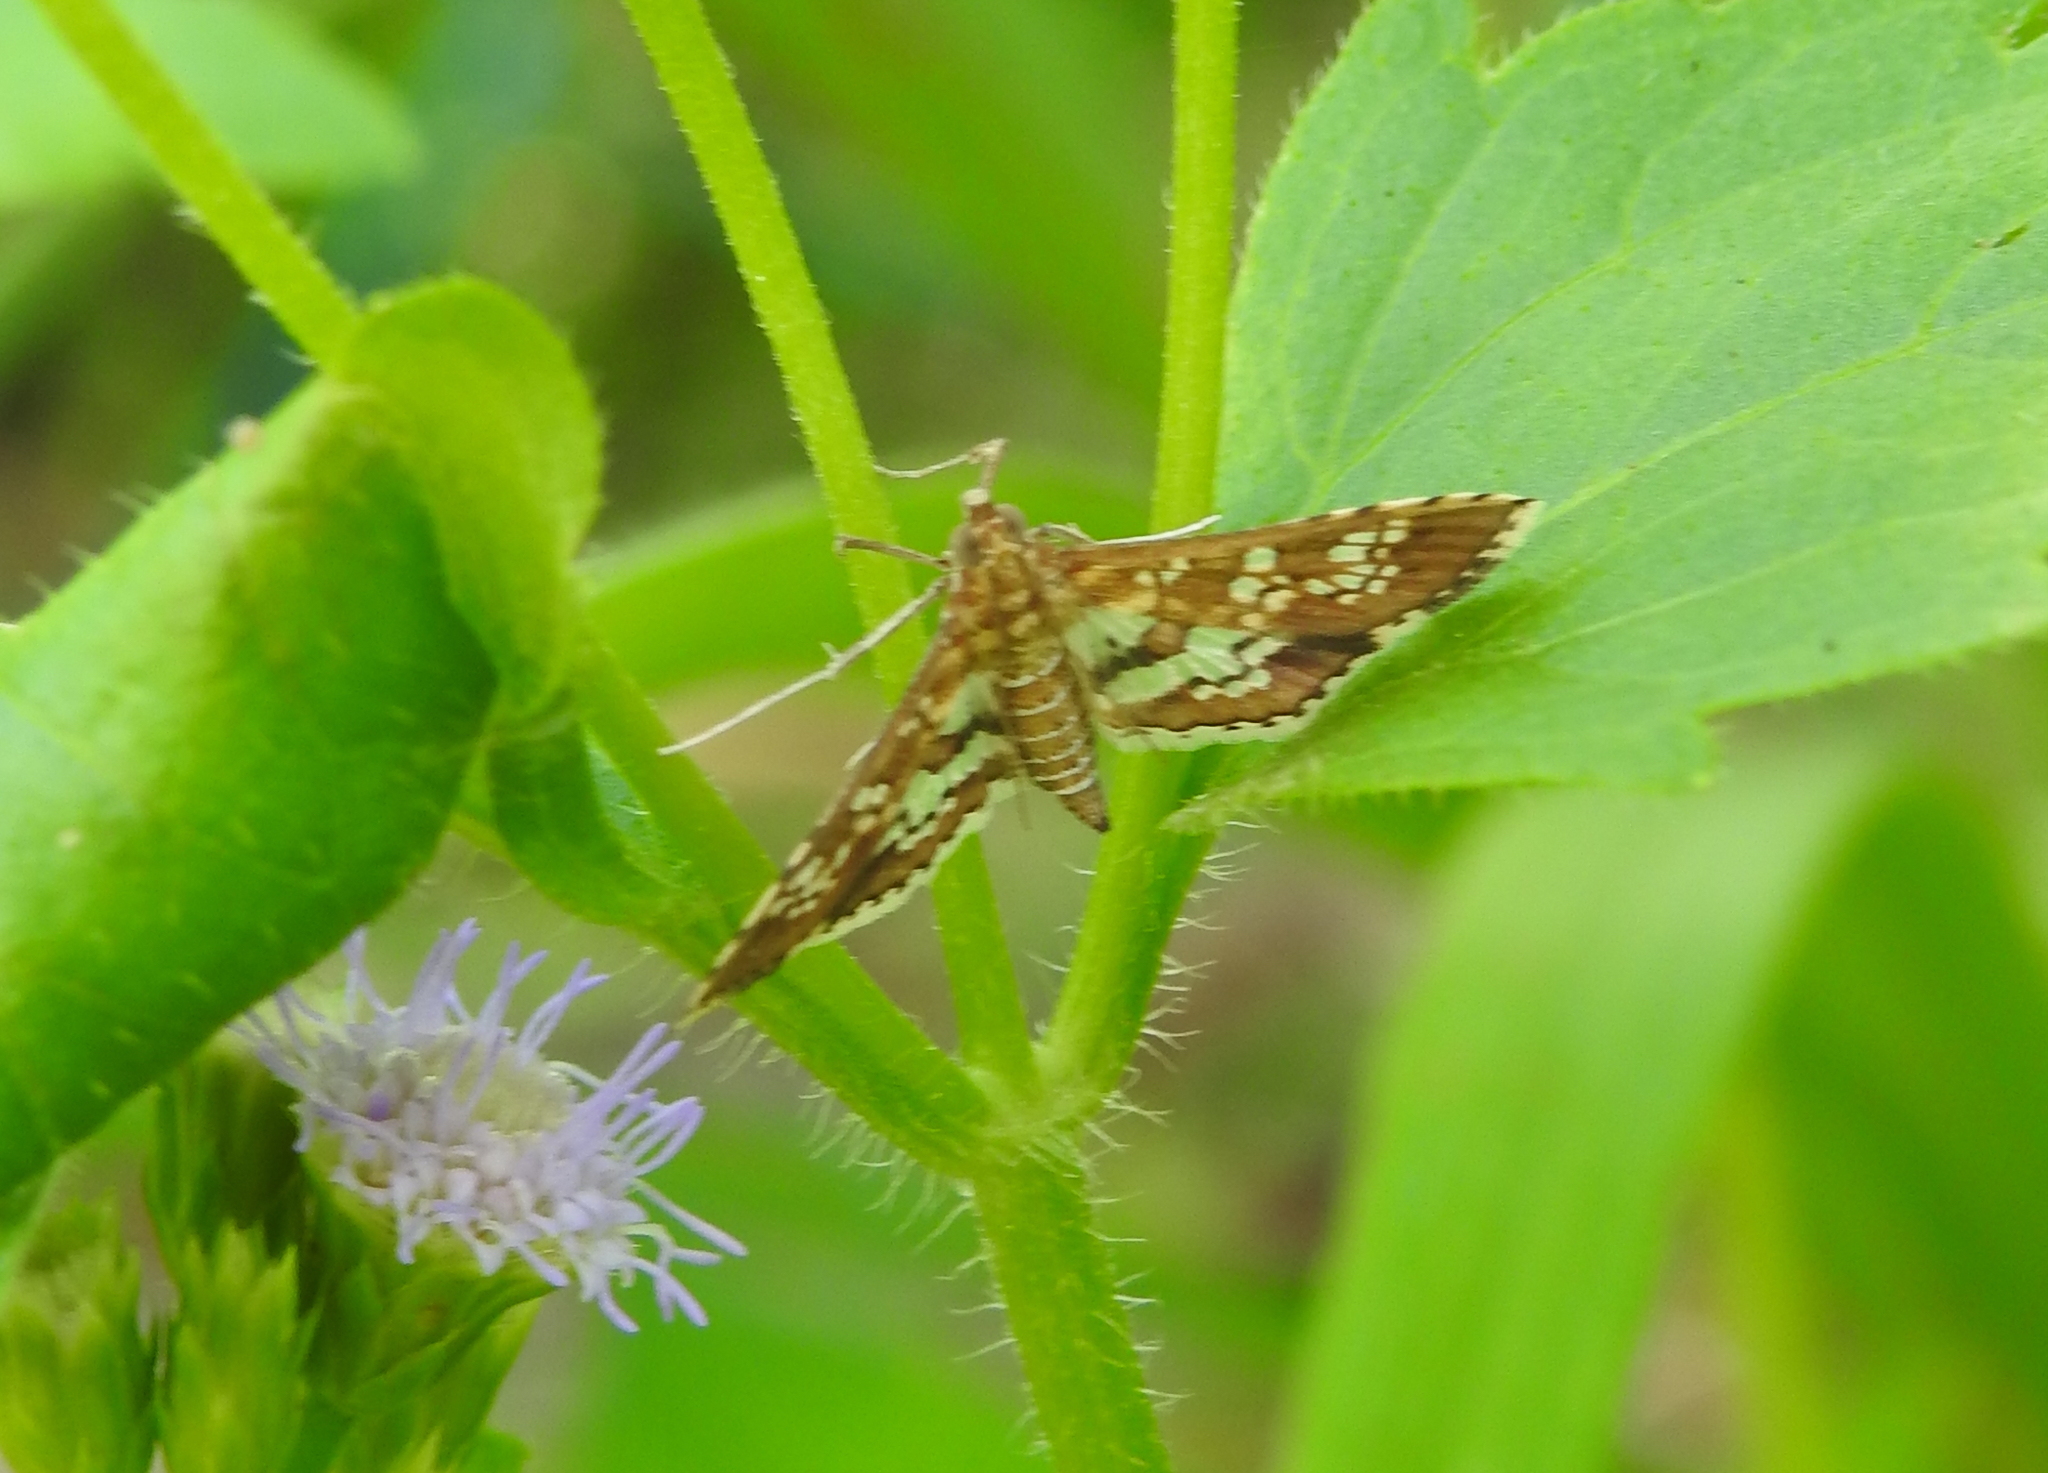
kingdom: Animalia
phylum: Arthropoda
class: Insecta
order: Lepidoptera
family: Crambidae
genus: Sameodes
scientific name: Sameodes cancellalis
